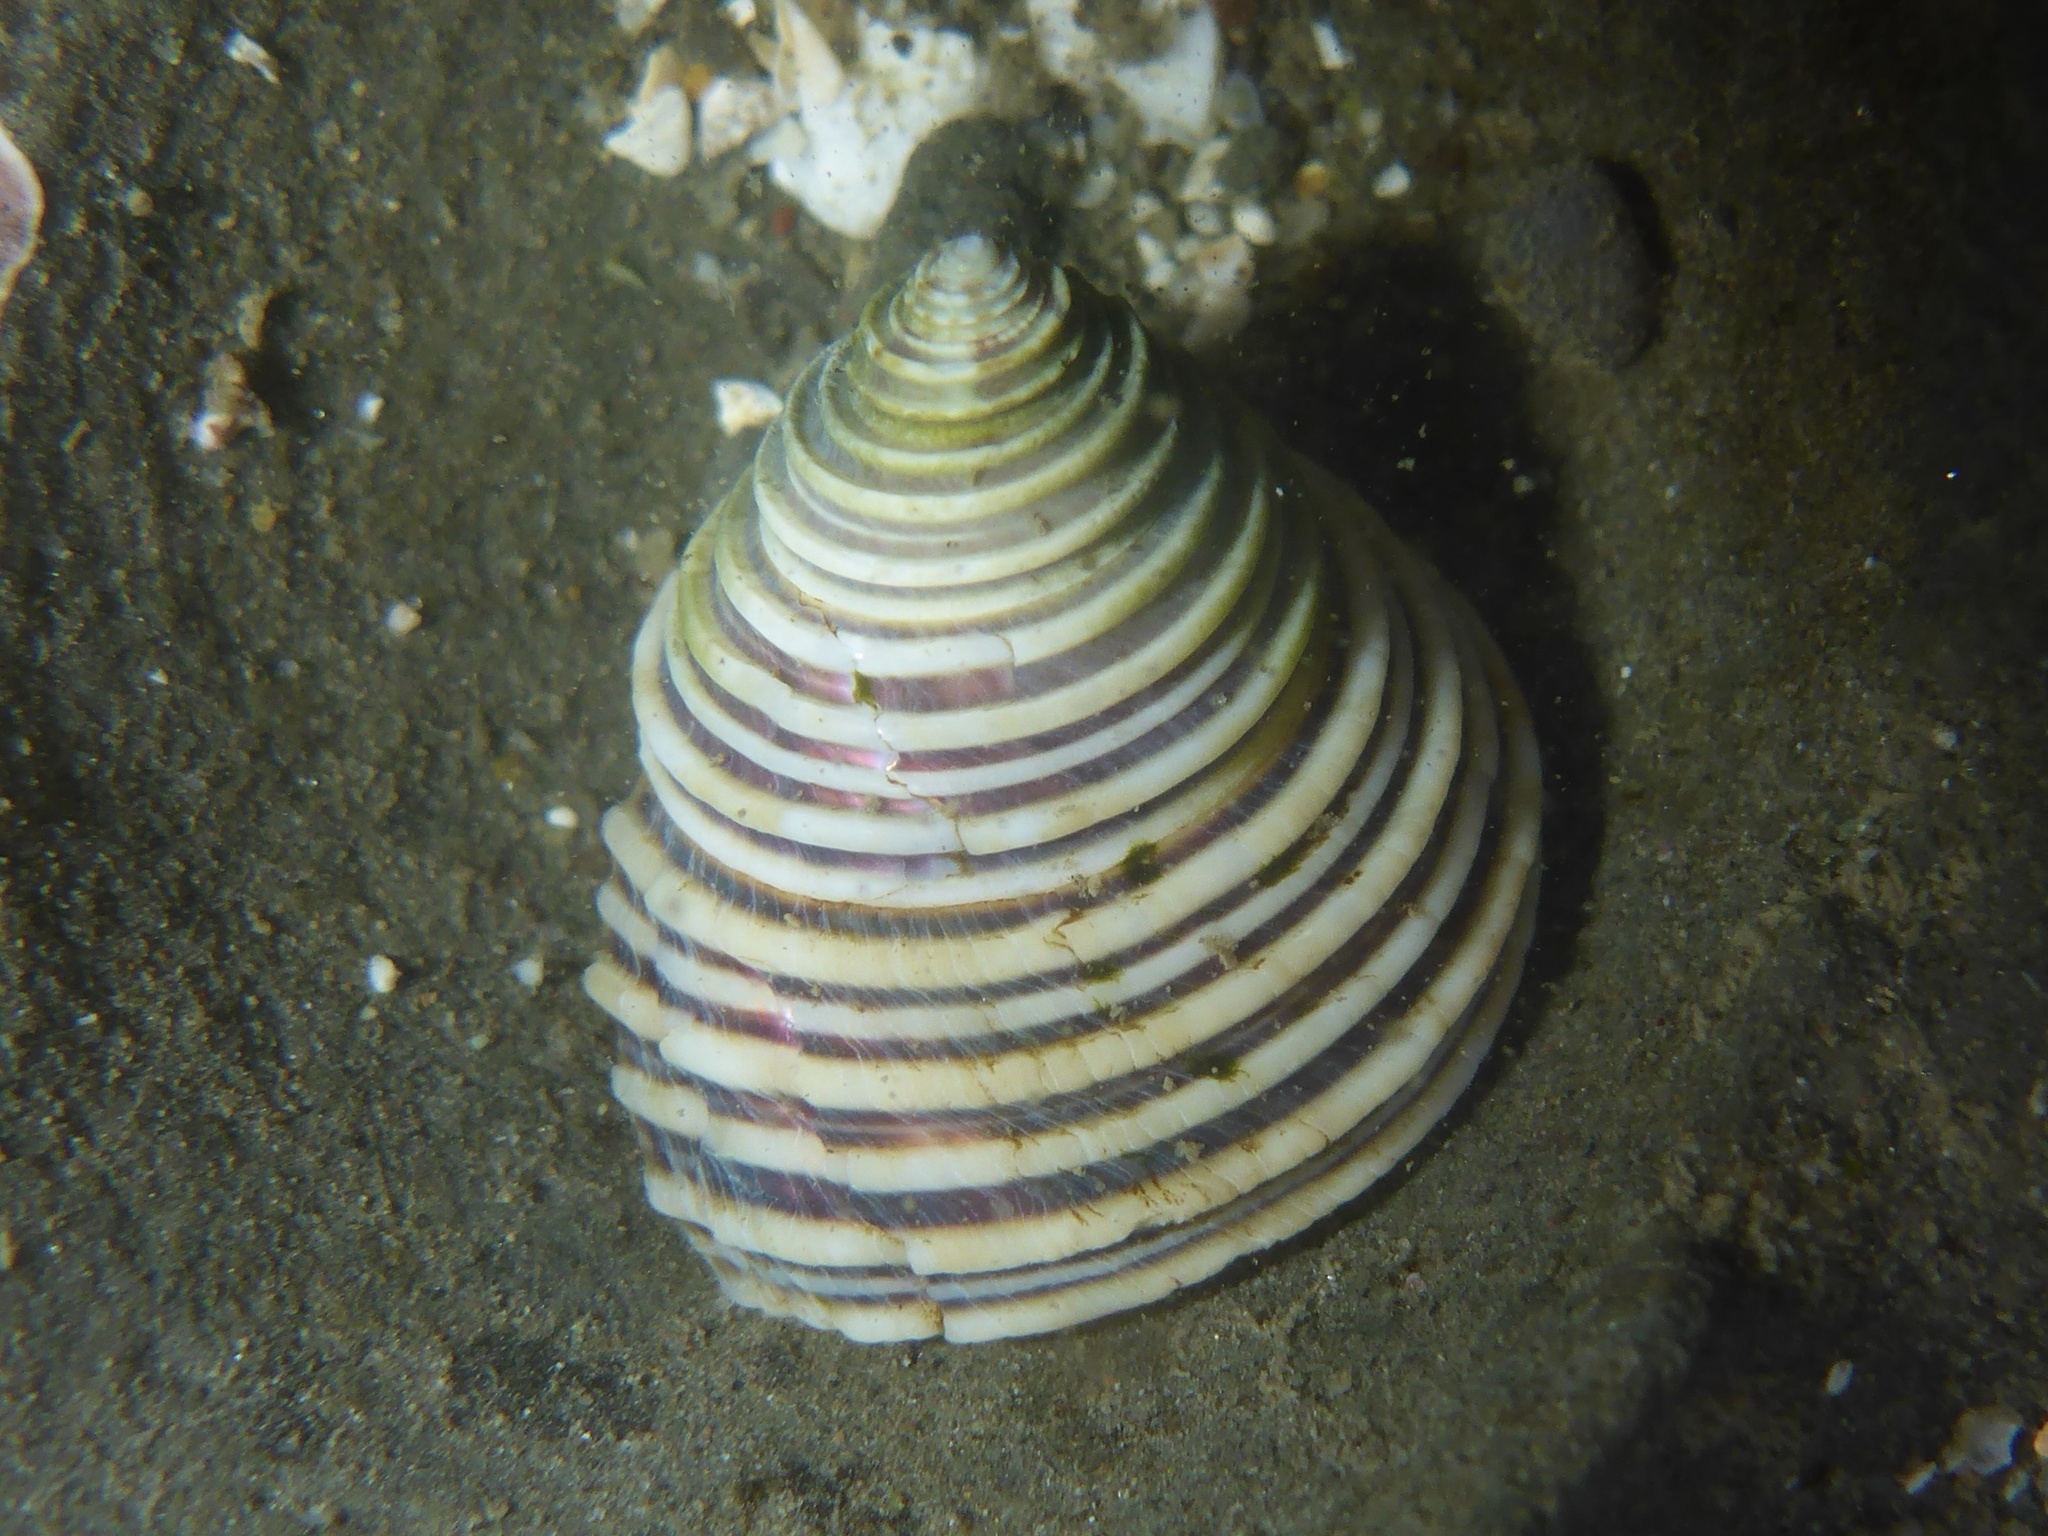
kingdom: Animalia
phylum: Mollusca
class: Gastropoda
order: Trochida
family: Calliostomatidae
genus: Calliostoma
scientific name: Calliostoma canaliculatum
